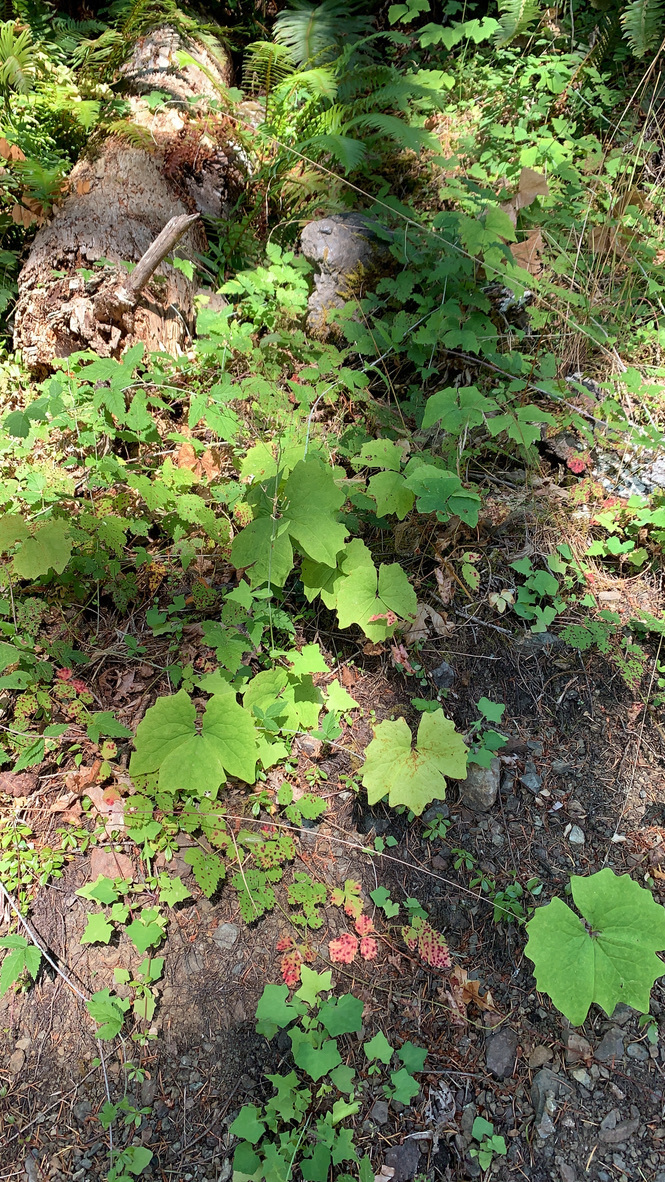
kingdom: Plantae
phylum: Tracheophyta
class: Magnoliopsida
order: Ranunculales
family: Berberidaceae
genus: Achlys
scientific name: Achlys triphylla
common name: Vanilla-leaf
